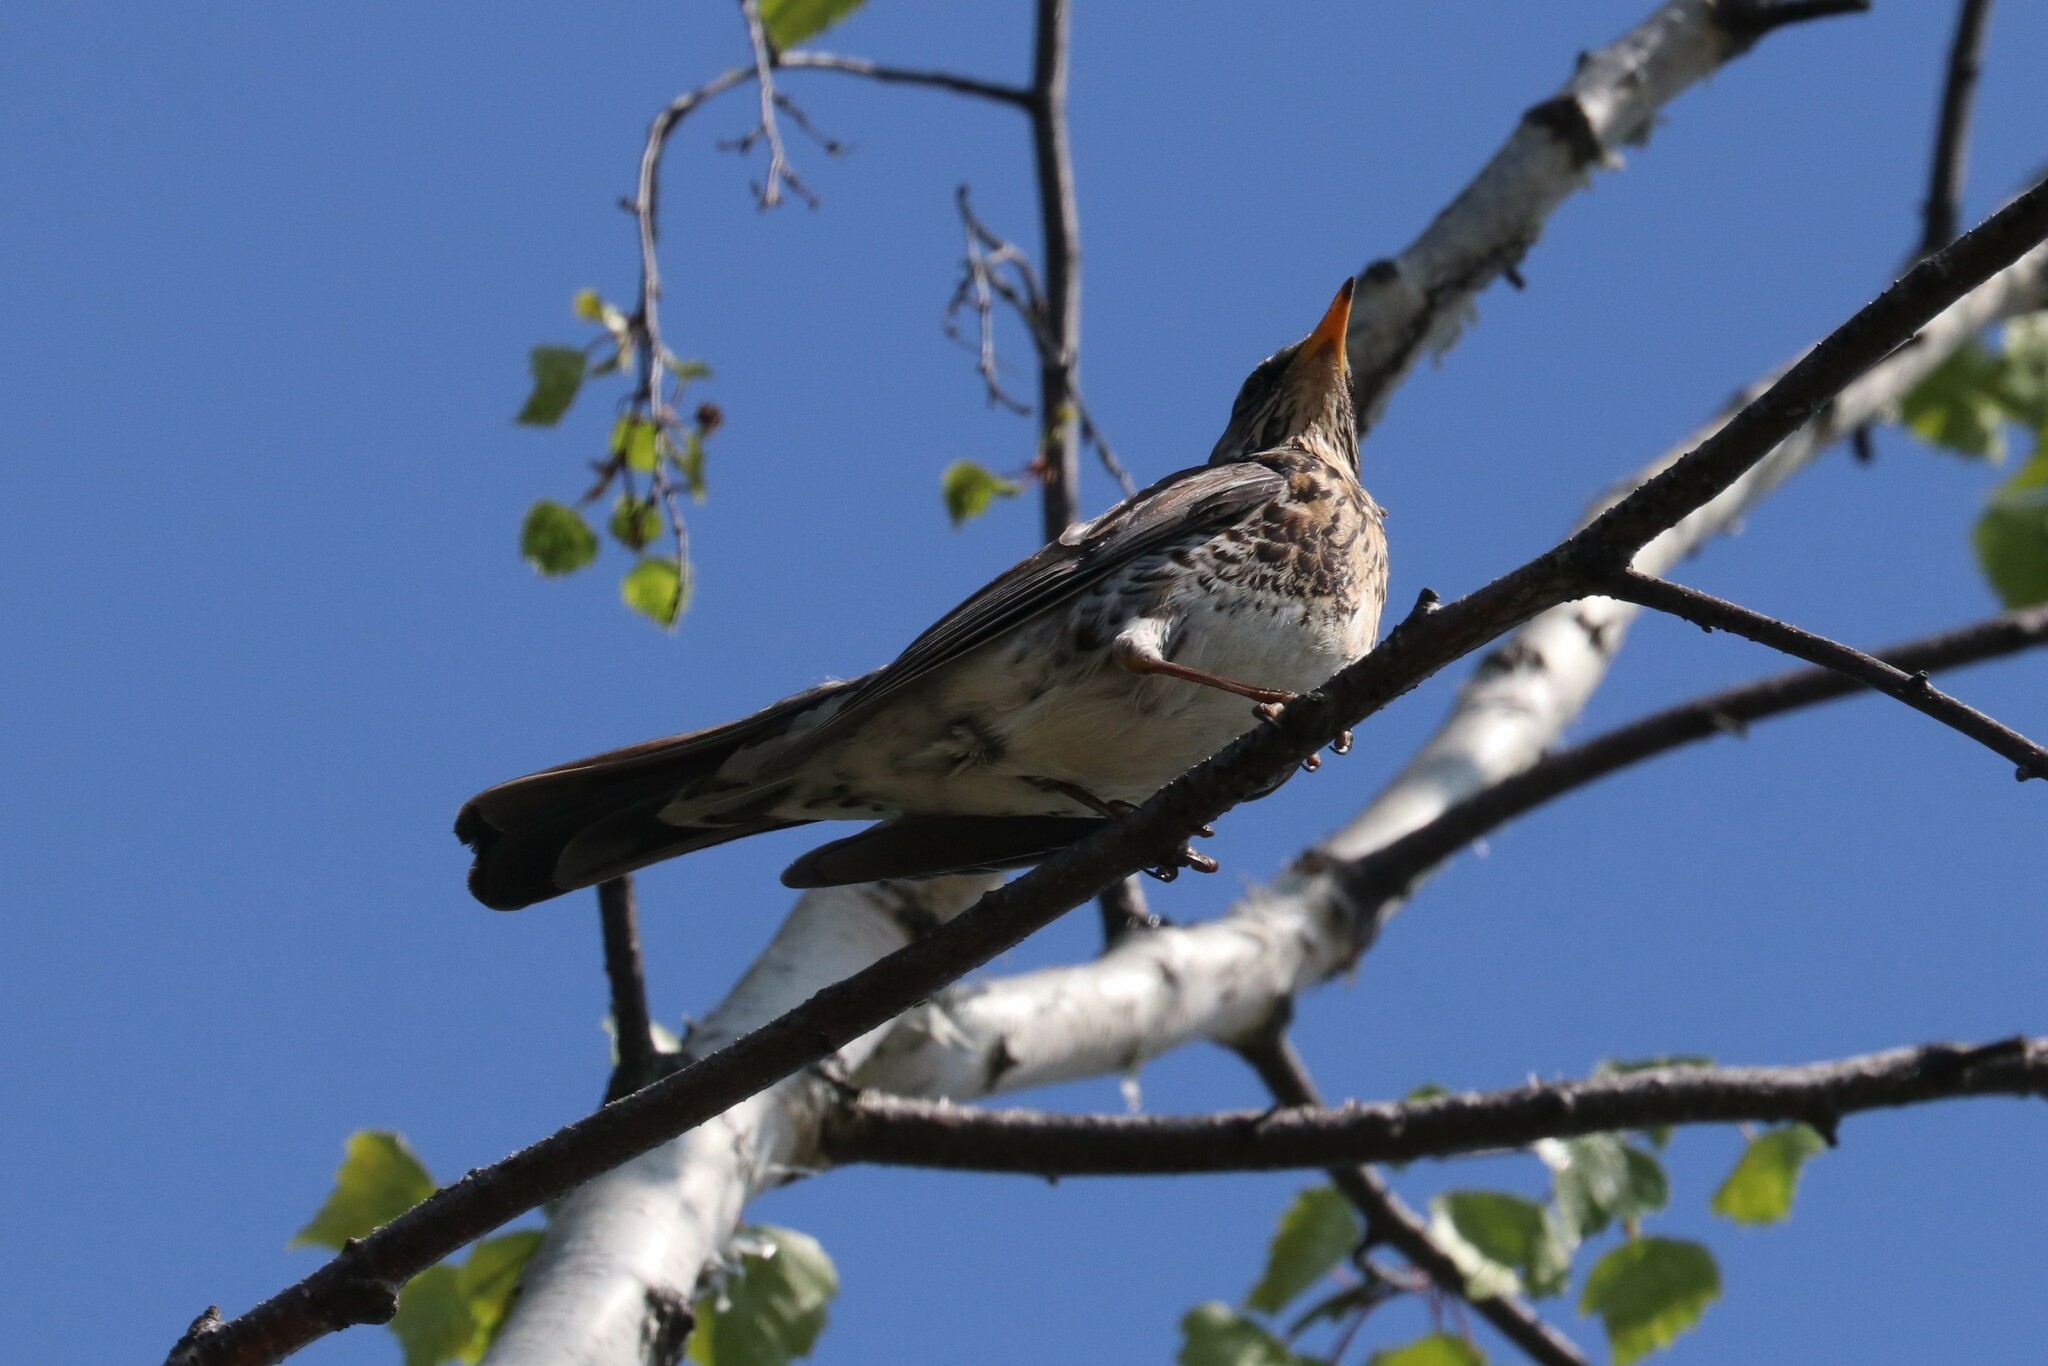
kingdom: Animalia
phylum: Chordata
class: Aves
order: Passeriformes
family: Turdidae
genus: Turdus
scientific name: Turdus pilaris
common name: Fieldfare
